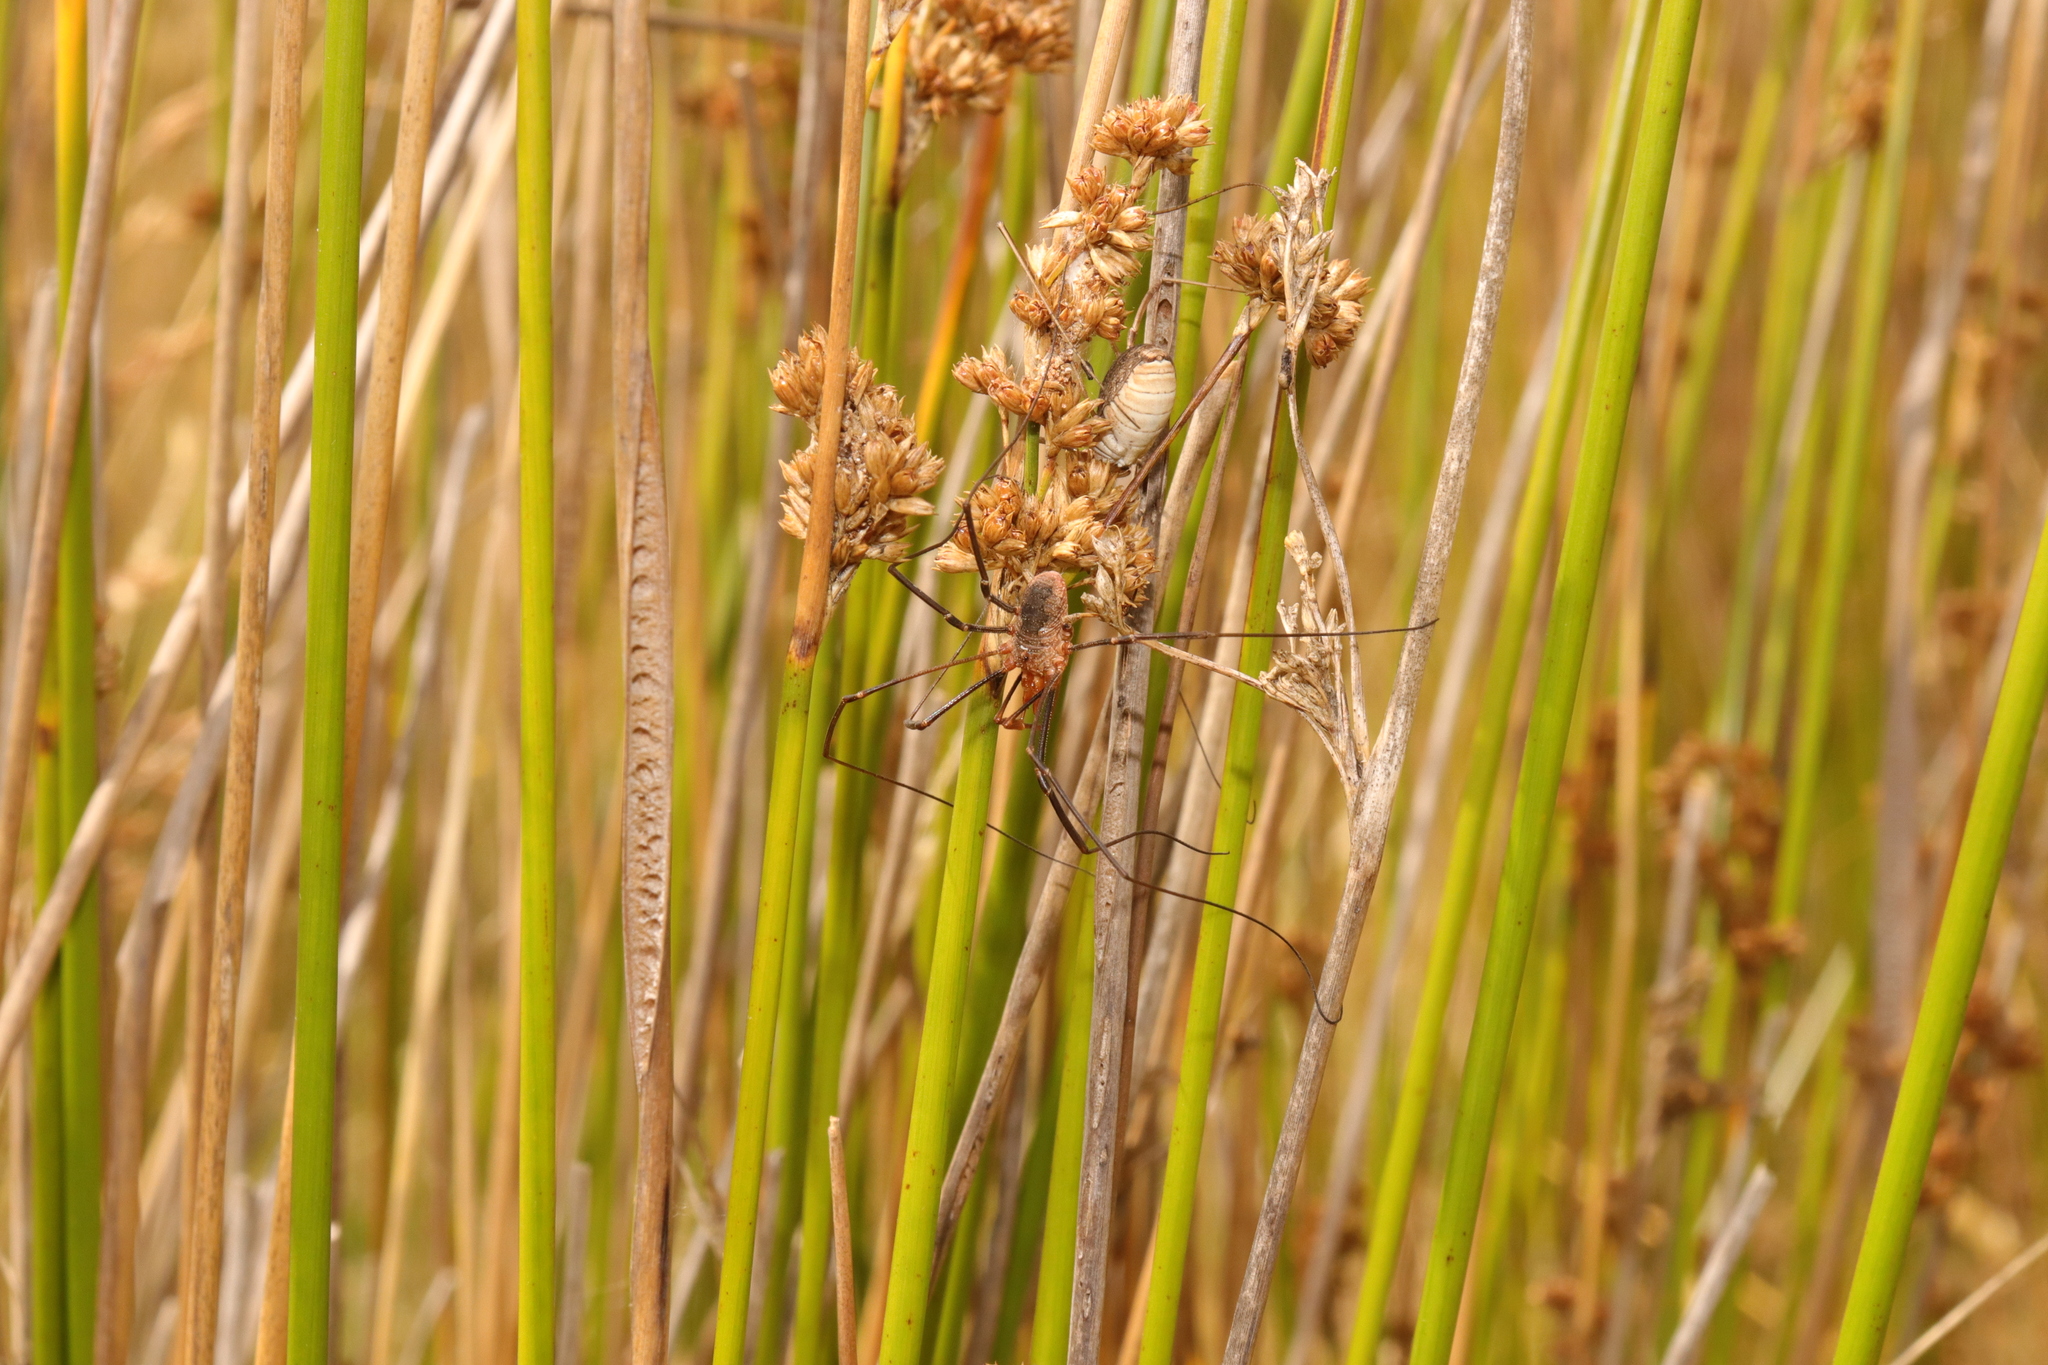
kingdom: Animalia
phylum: Arthropoda
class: Arachnida
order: Opiliones
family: Phalangiidae
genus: Phalangium
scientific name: Phalangium opilio
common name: Daddy longleg
